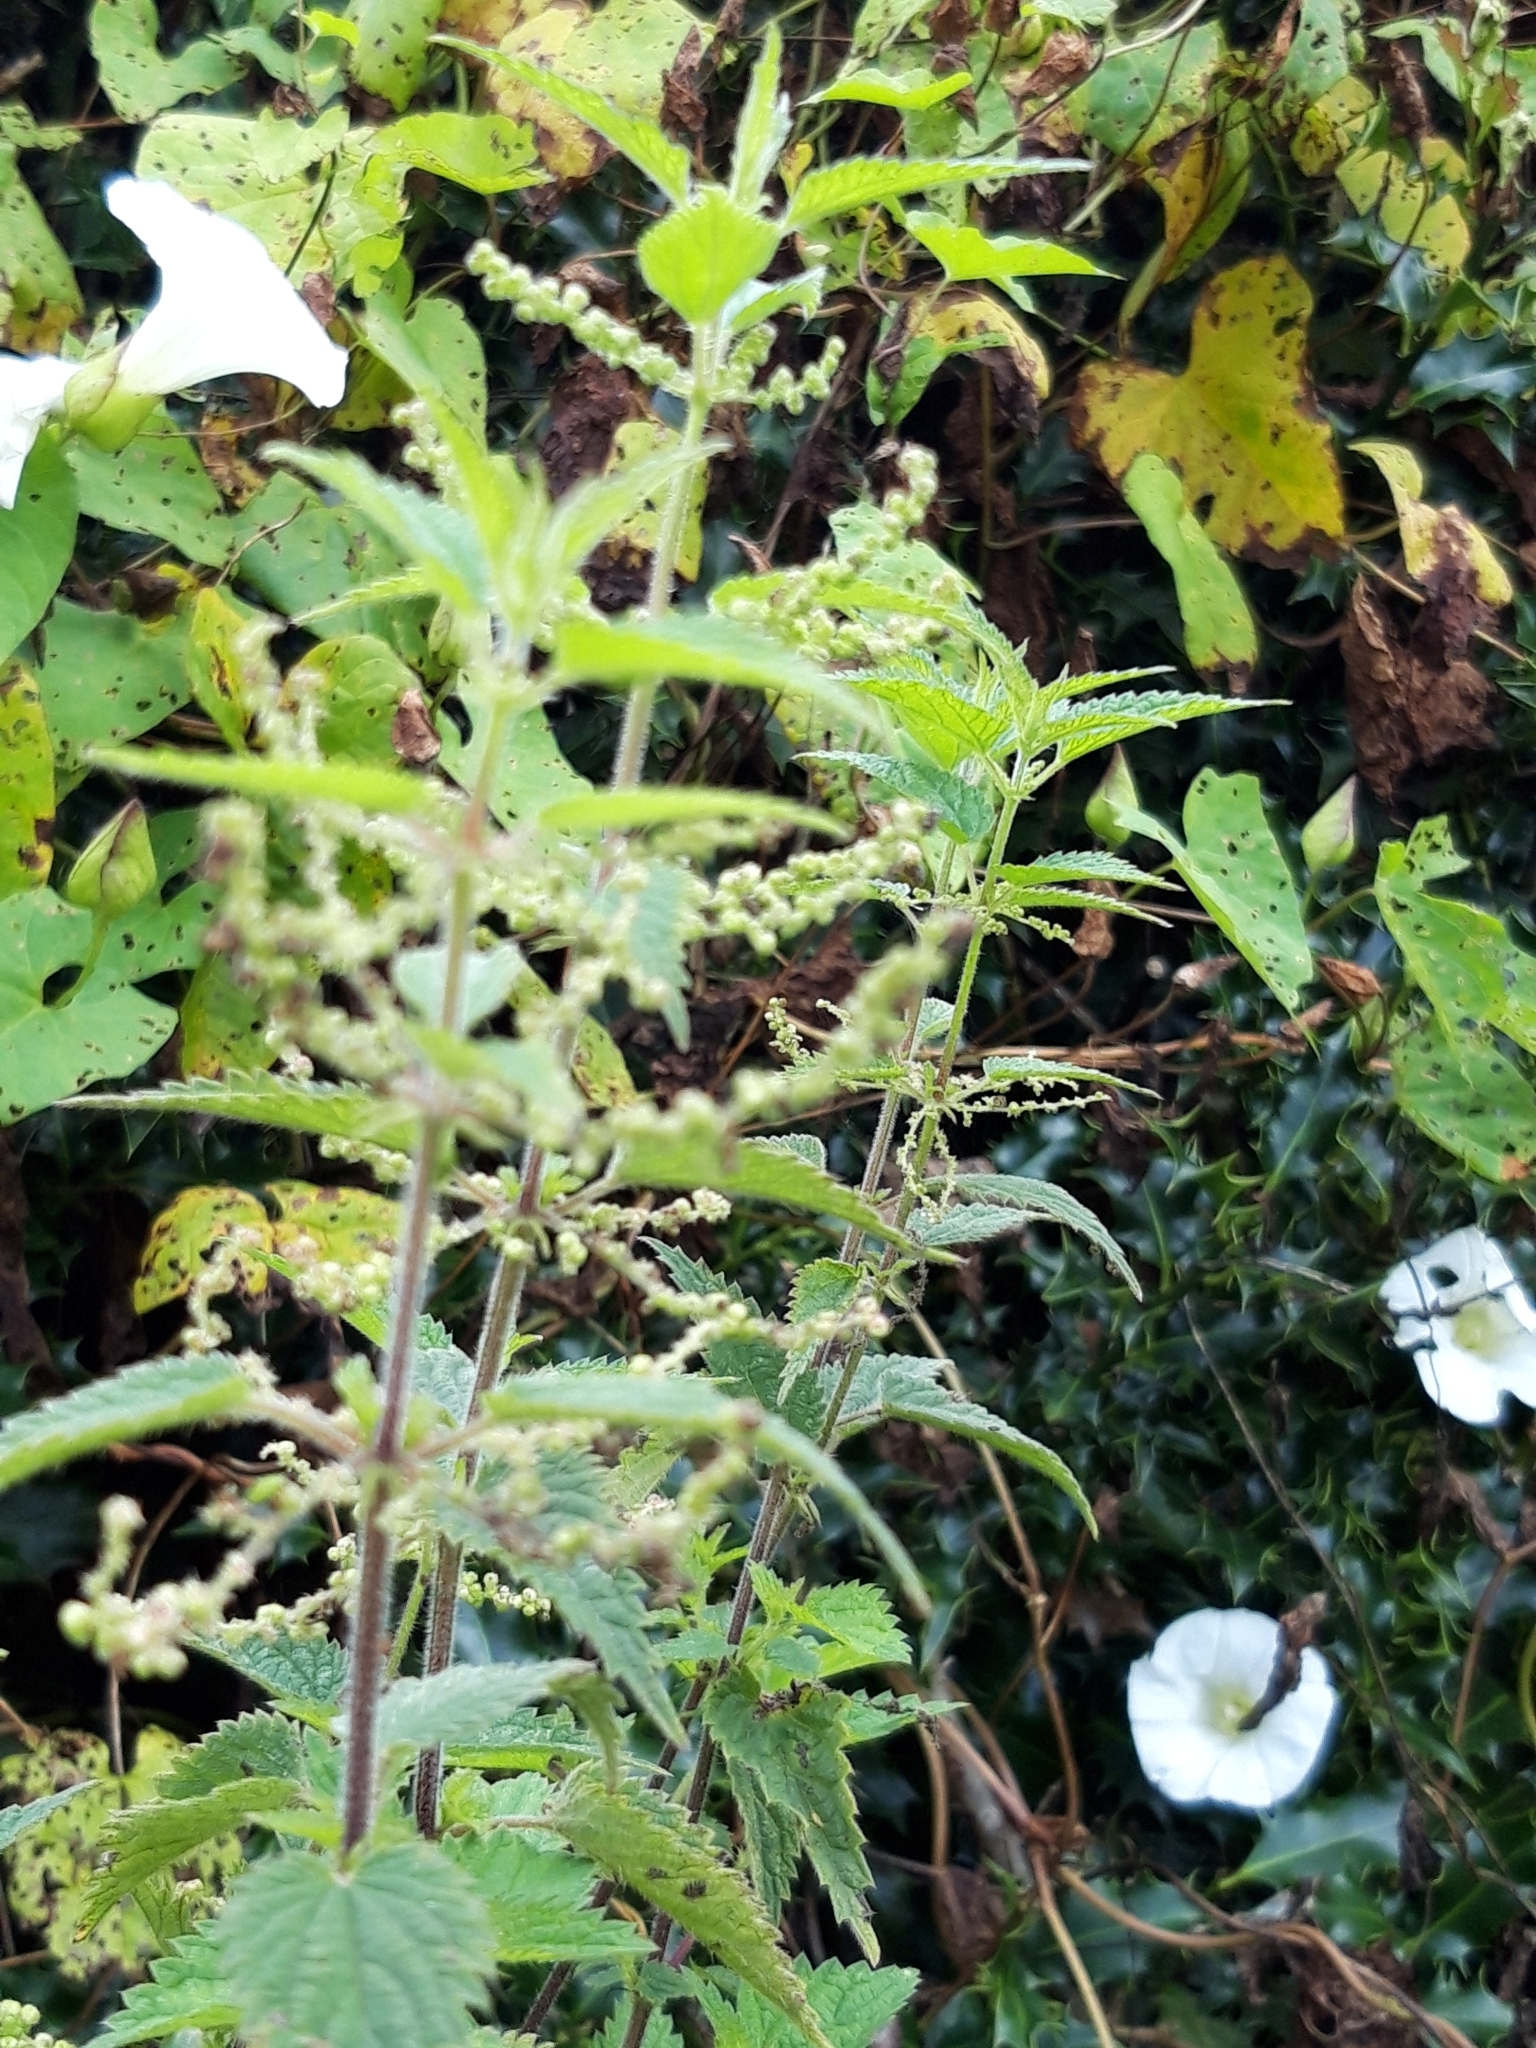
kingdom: Plantae
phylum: Tracheophyta
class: Magnoliopsida
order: Rosales
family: Urticaceae
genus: Urtica
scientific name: Urtica dioica
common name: Common nettle
